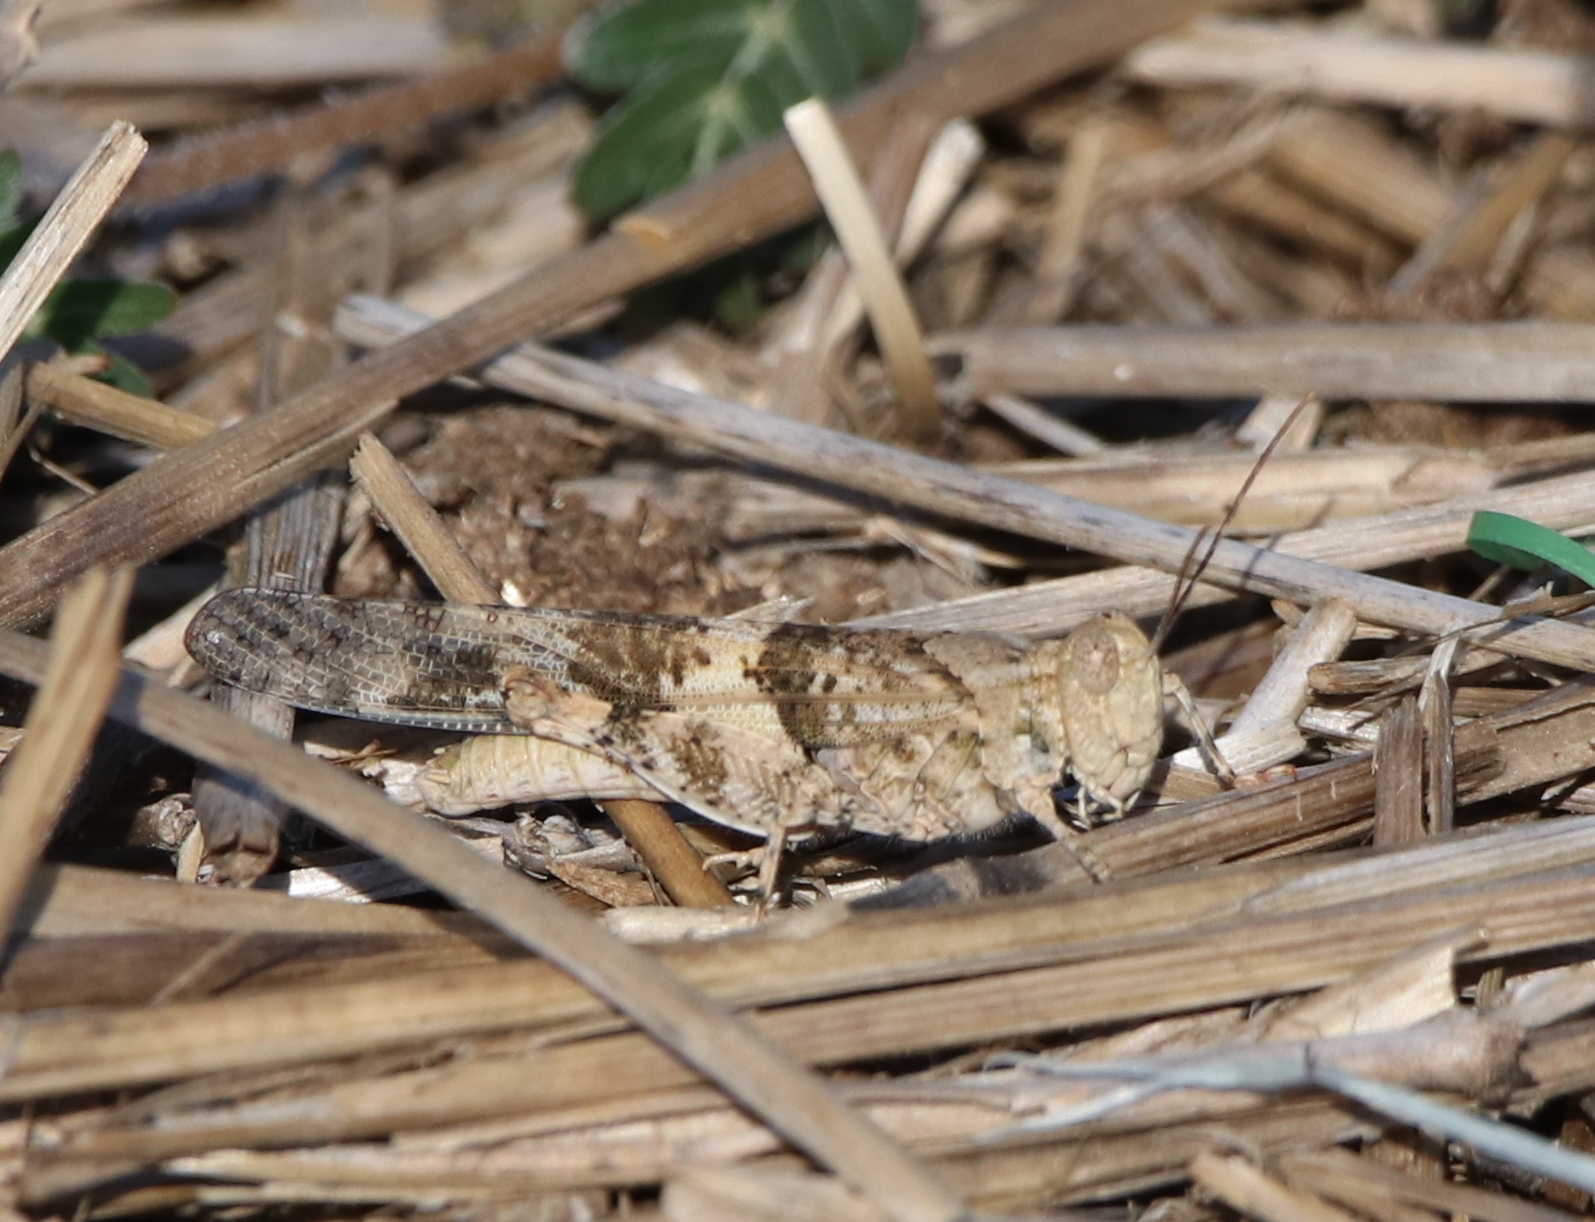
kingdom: Animalia
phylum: Arthropoda
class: Insecta
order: Orthoptera
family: Acrididae
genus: Trimerotropis
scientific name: Trimerotropis pallidipennis
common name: Pallid-winged grasshopper
